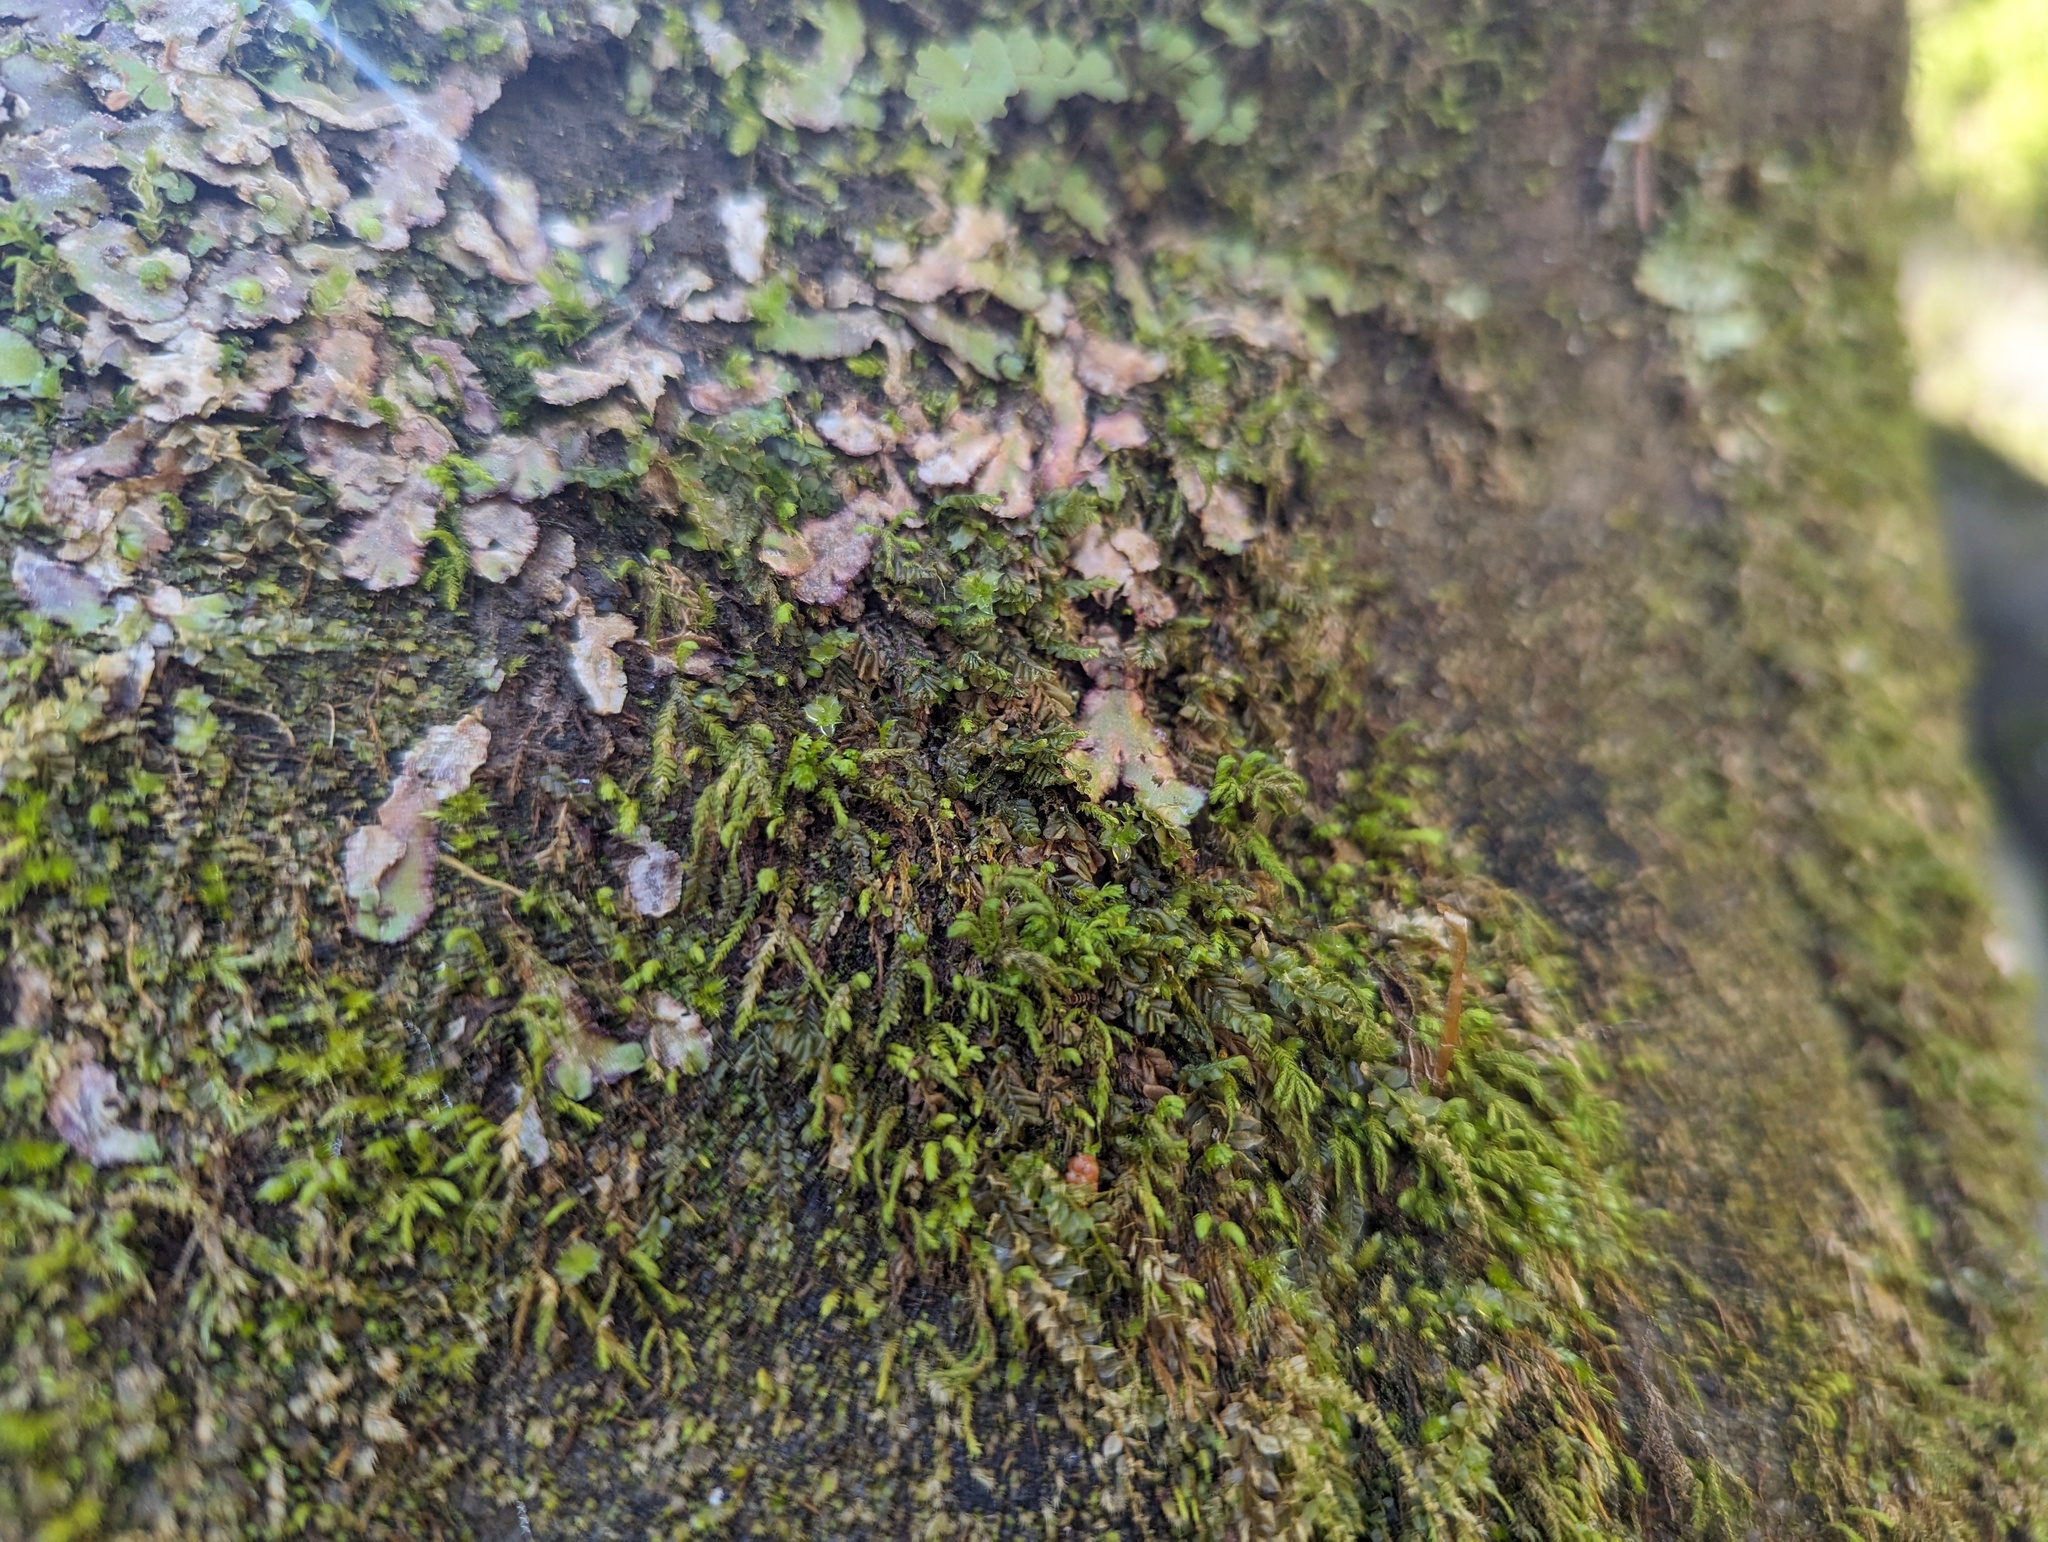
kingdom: Plantae
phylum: Marchantiophyta
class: Marchantiopsida
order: Marchantiales
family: Aytoniaceae
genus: Reboulia
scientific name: Reboulia hemisphaerica
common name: Purple-margined liverwort
